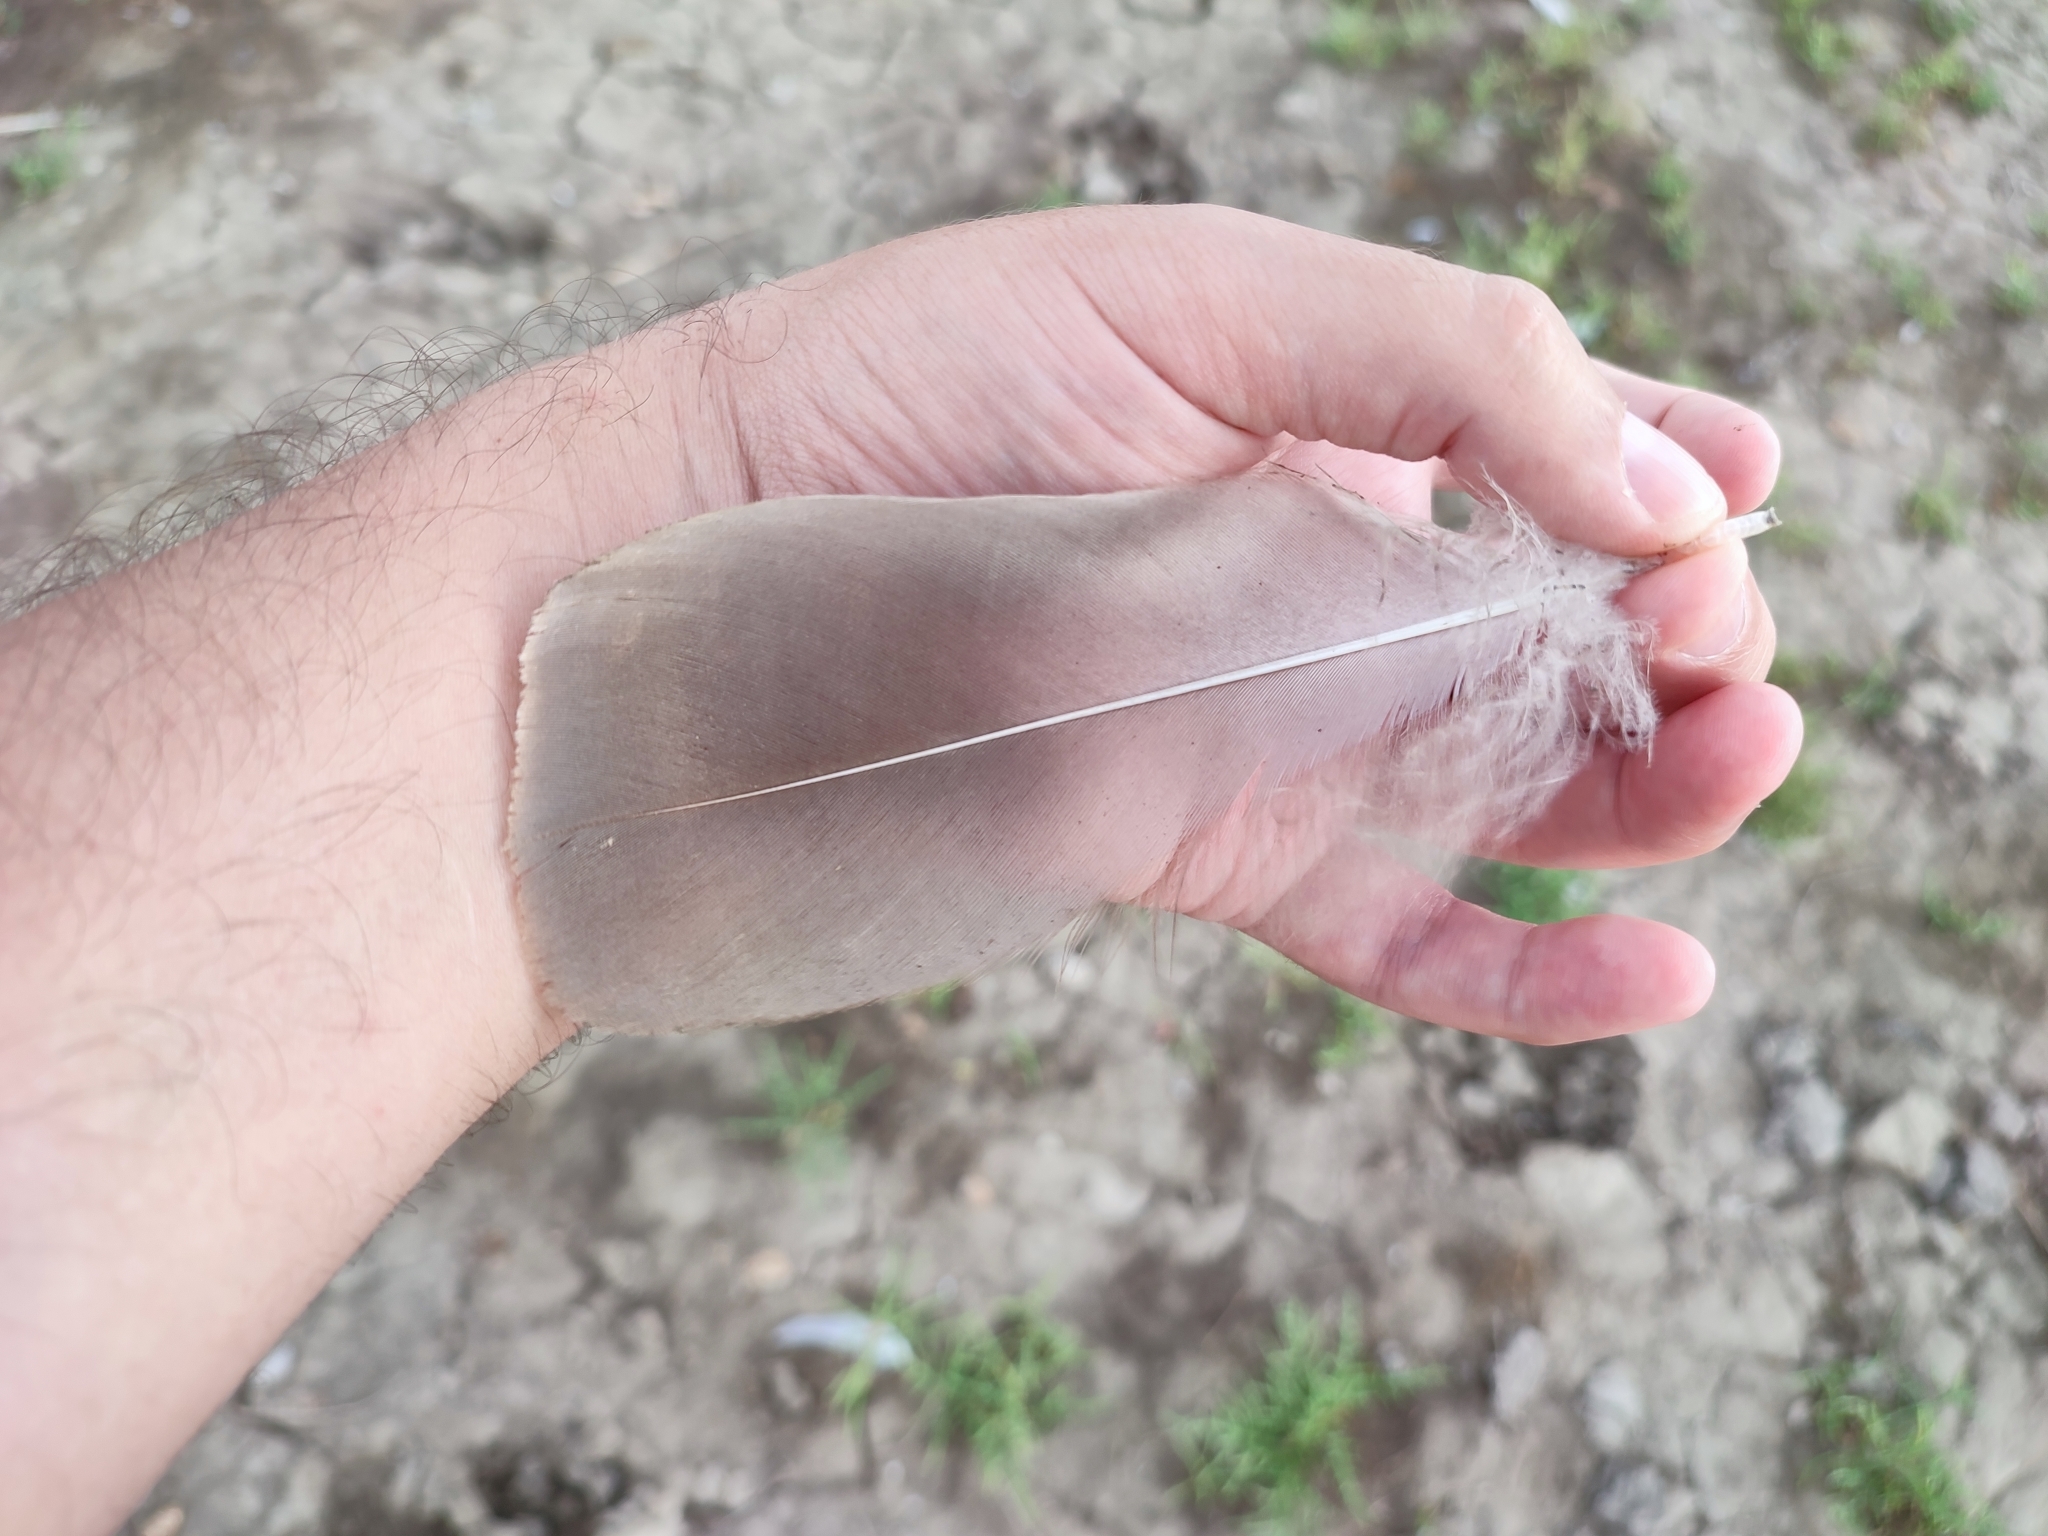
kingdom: Animalia
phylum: Chordata
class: Aves
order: Anseriformes
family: Anatidae
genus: Anser
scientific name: Anser anser
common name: Greylag goose
